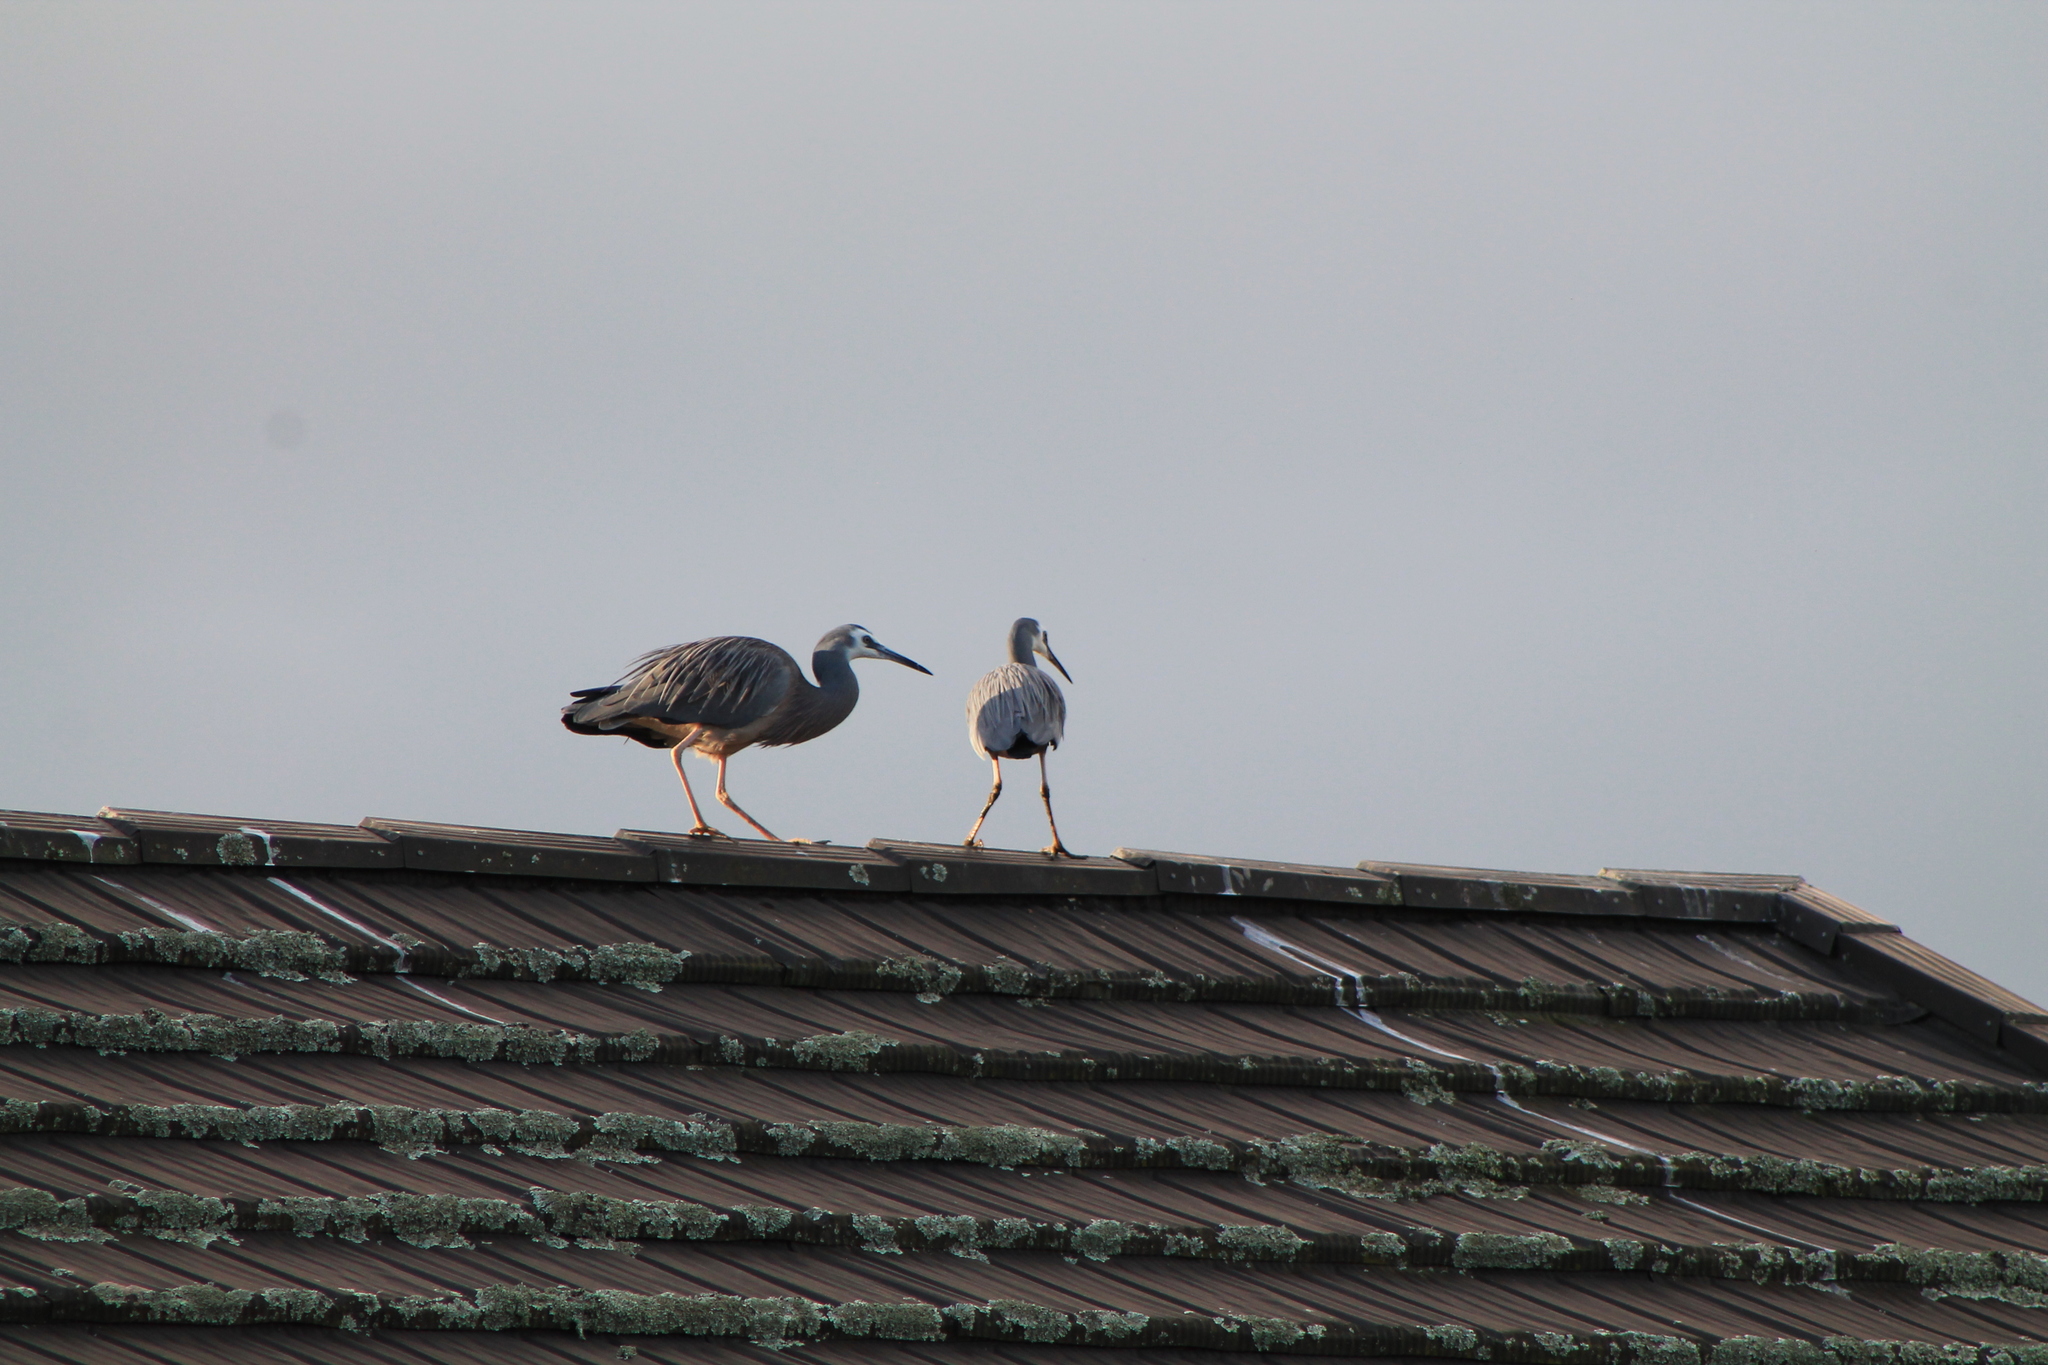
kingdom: Animalia
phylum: Chordata
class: Aves
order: Pelecaniformes
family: Ardeidae
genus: Egretta
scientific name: Egretta novaehollandiae
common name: White-faced heron
